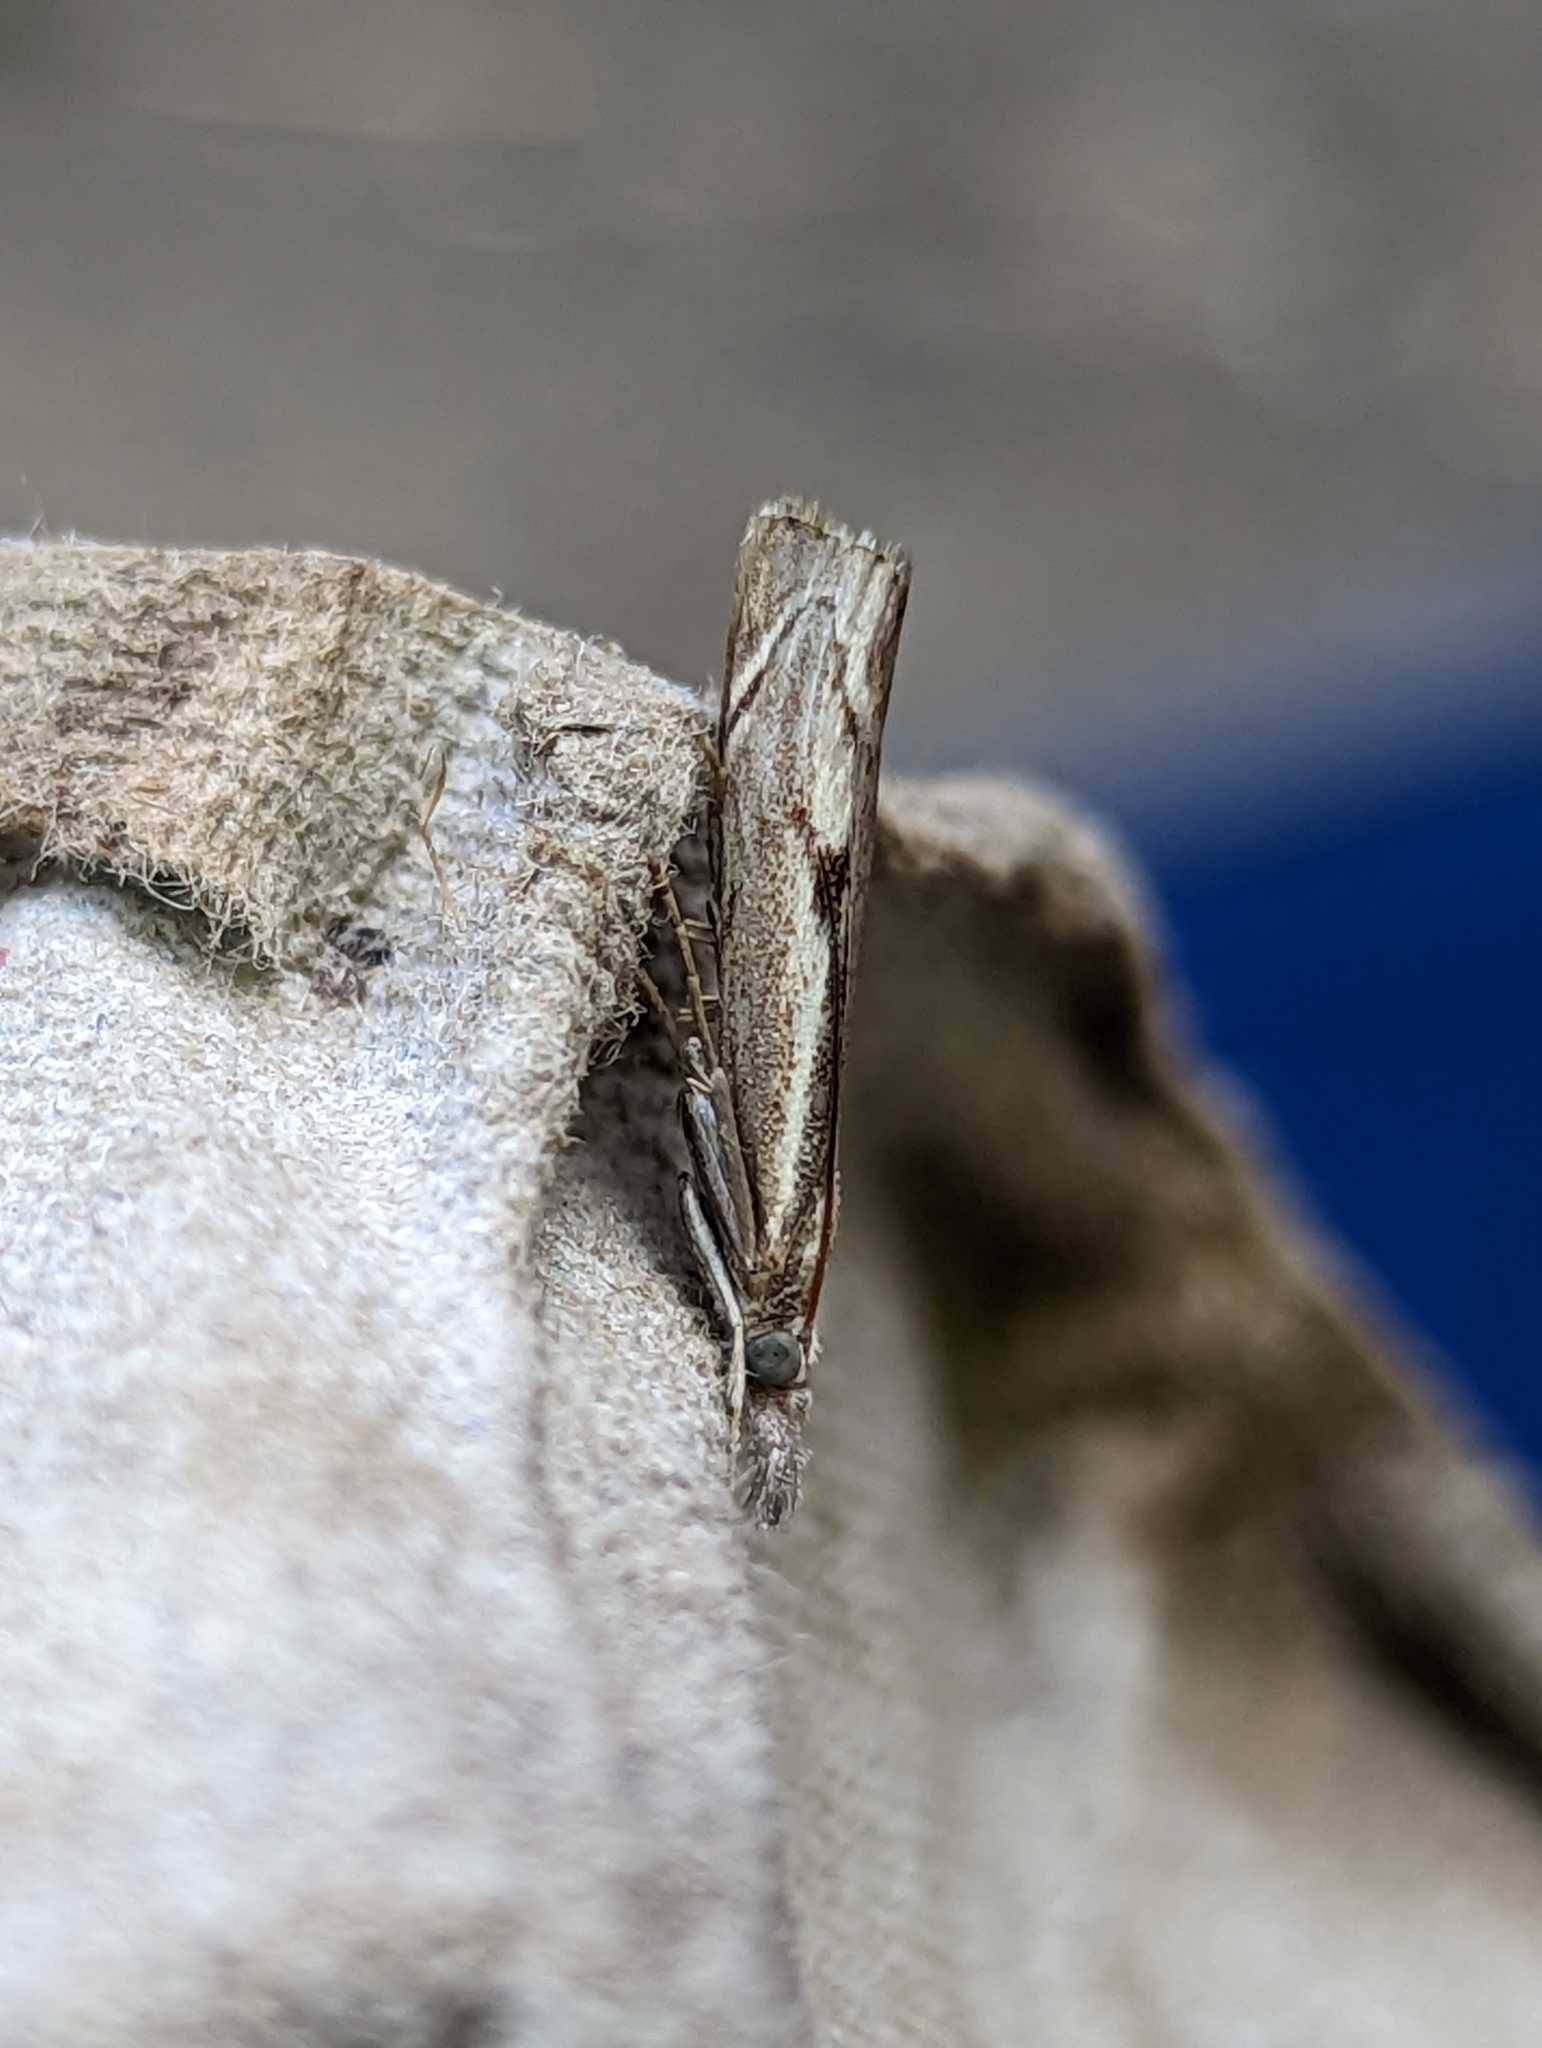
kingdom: Animalia
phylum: Arthropoda
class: Insecta
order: Lepidoptera
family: Crambidae
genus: Agriphila
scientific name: Agriphila geniculea
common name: Elbow-stripe grass-veneer
